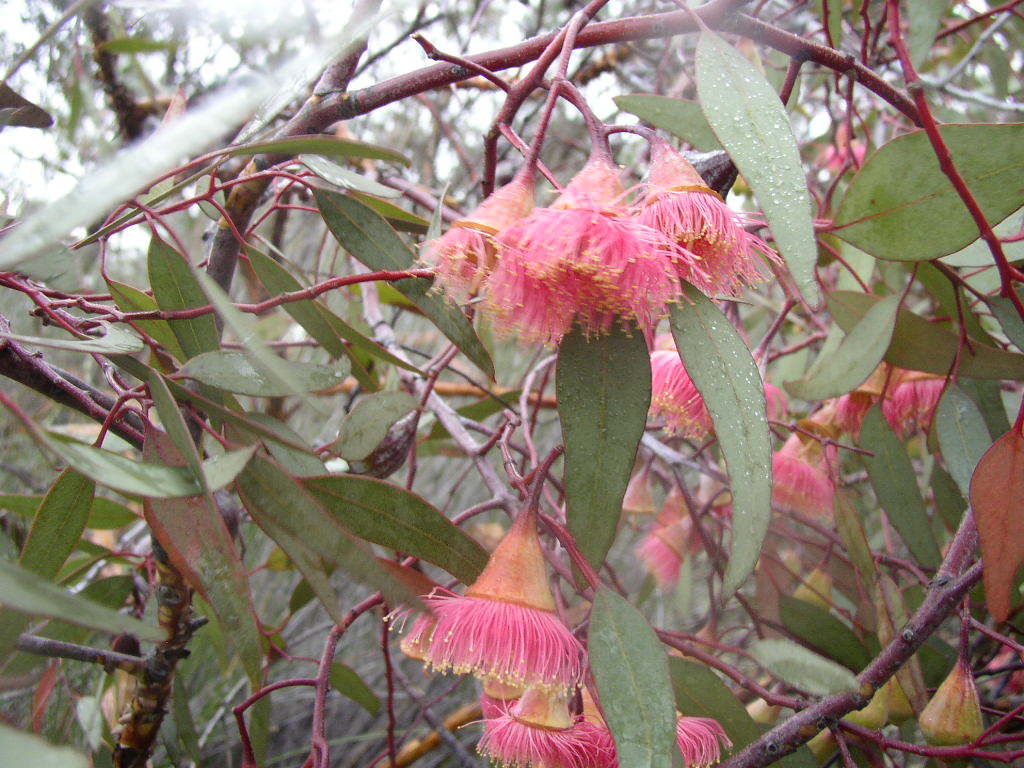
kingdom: Plantae
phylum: Tracheophyta
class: Magnoliopsida
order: Myrtales
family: Myrtaceae
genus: Eucalyptus
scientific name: Eucalyptus caesia
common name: Silver princess
